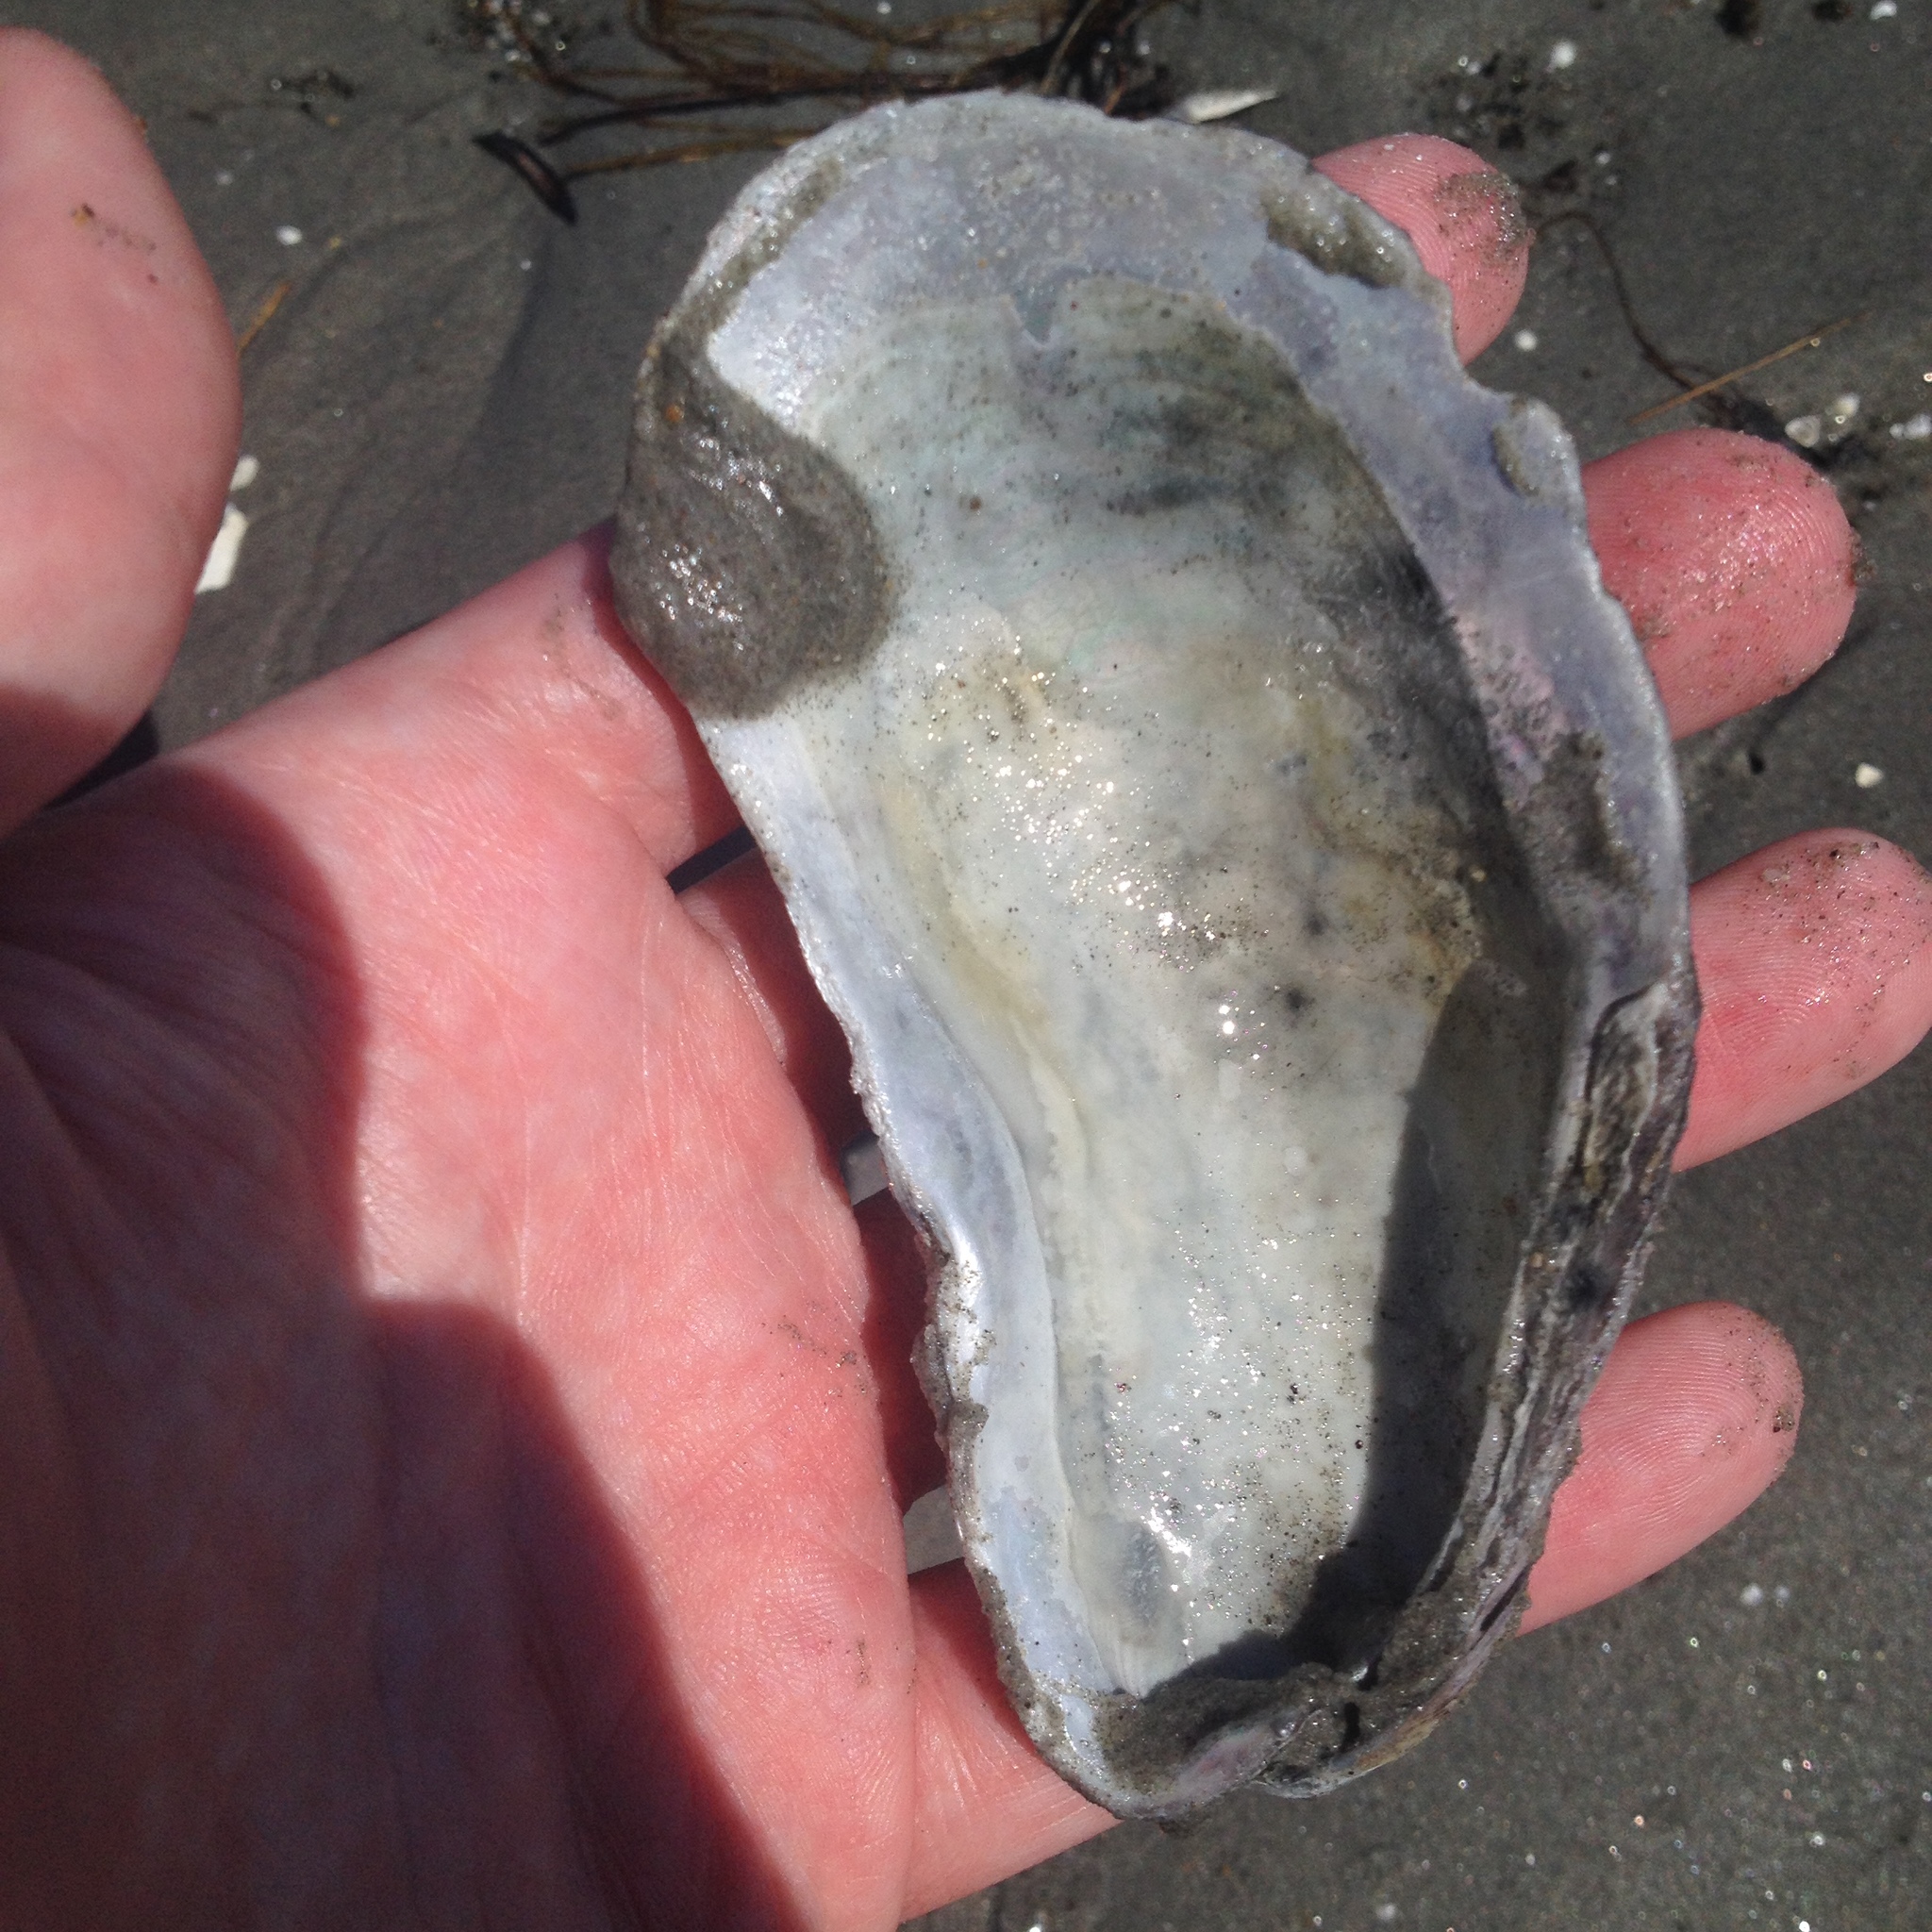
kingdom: Animalia
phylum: Mollusca
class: Bivalvia
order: Mytilida
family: Mytilidae
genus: Modiolus
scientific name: Modiolus modiolus
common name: Horse-mussel
